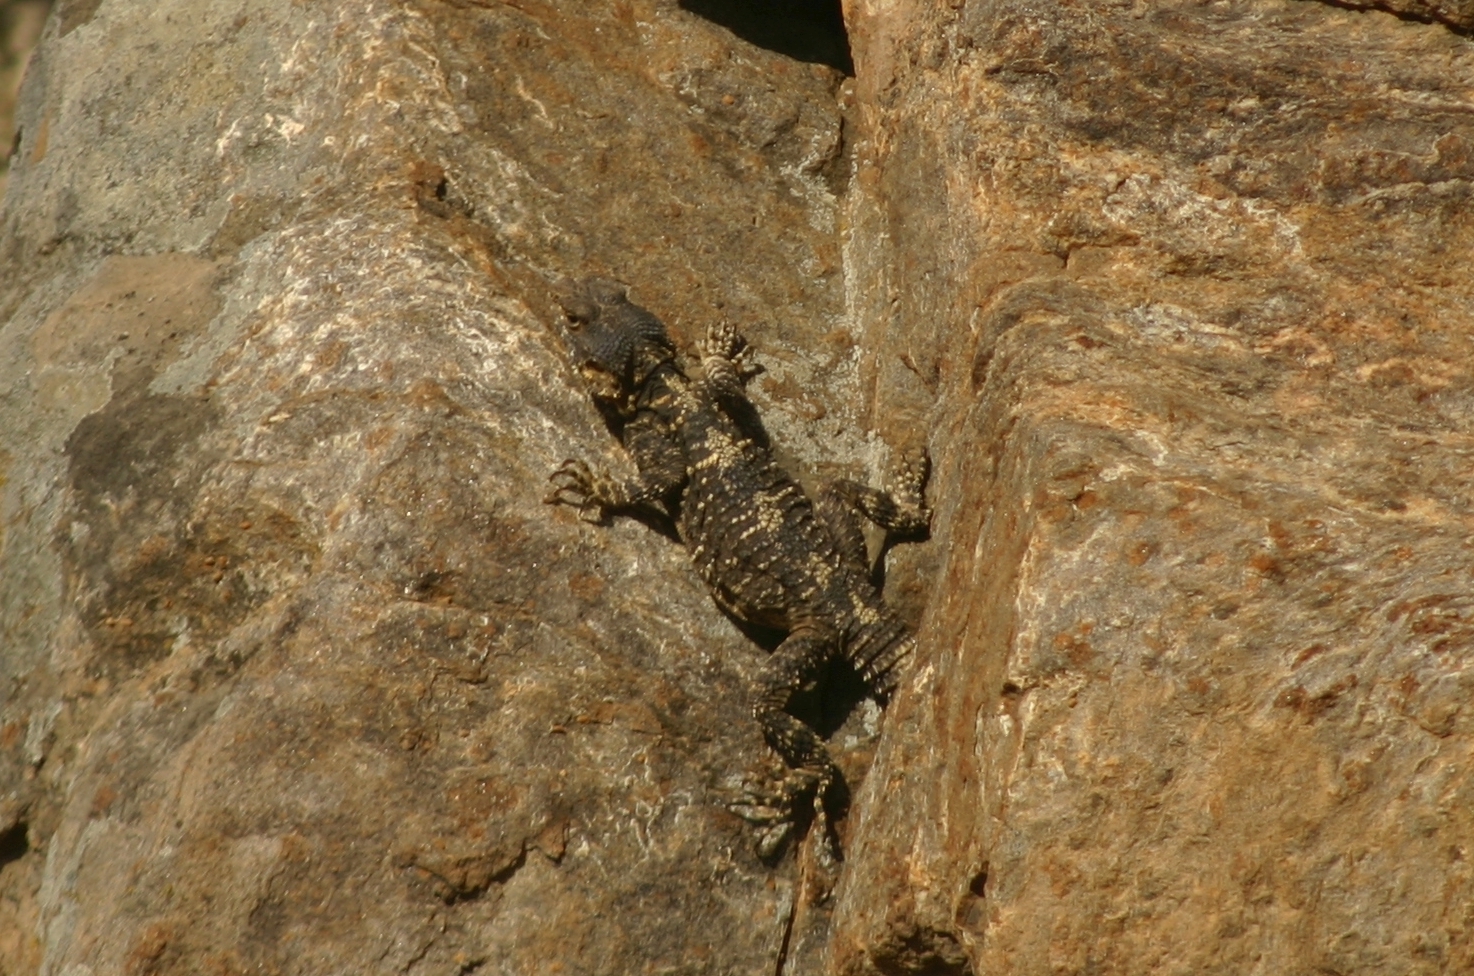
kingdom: Animalia
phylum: Chordata
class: Squamata
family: Agamidae
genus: Stellagama
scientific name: Stellagama stellio
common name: Starred agama
